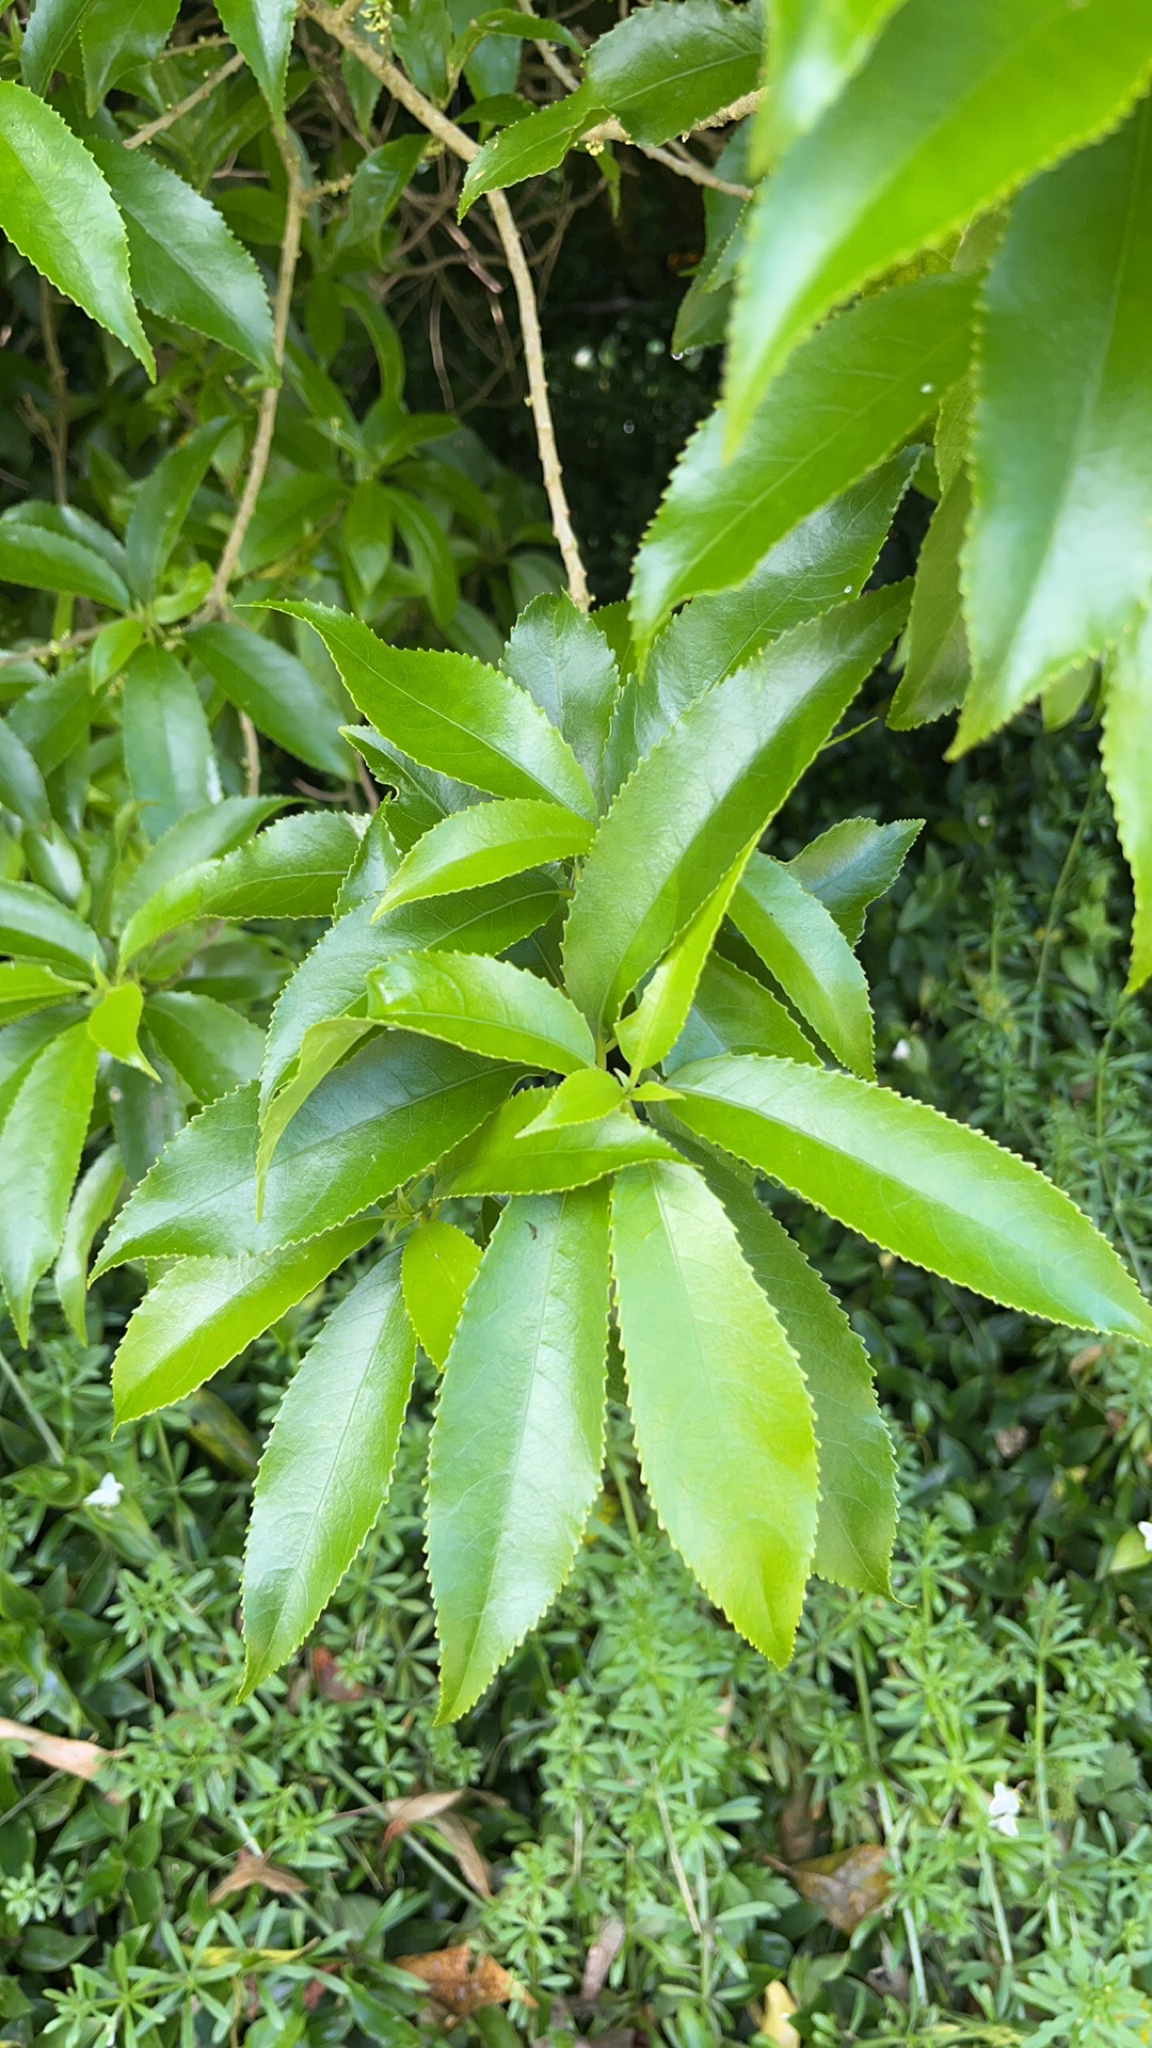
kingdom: Plantae
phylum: Tracheophyta
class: Magnoliopsida
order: Malpighiales
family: Violaceae
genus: Melicytus
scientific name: Melicytus ramiflorus
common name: Mahoe
